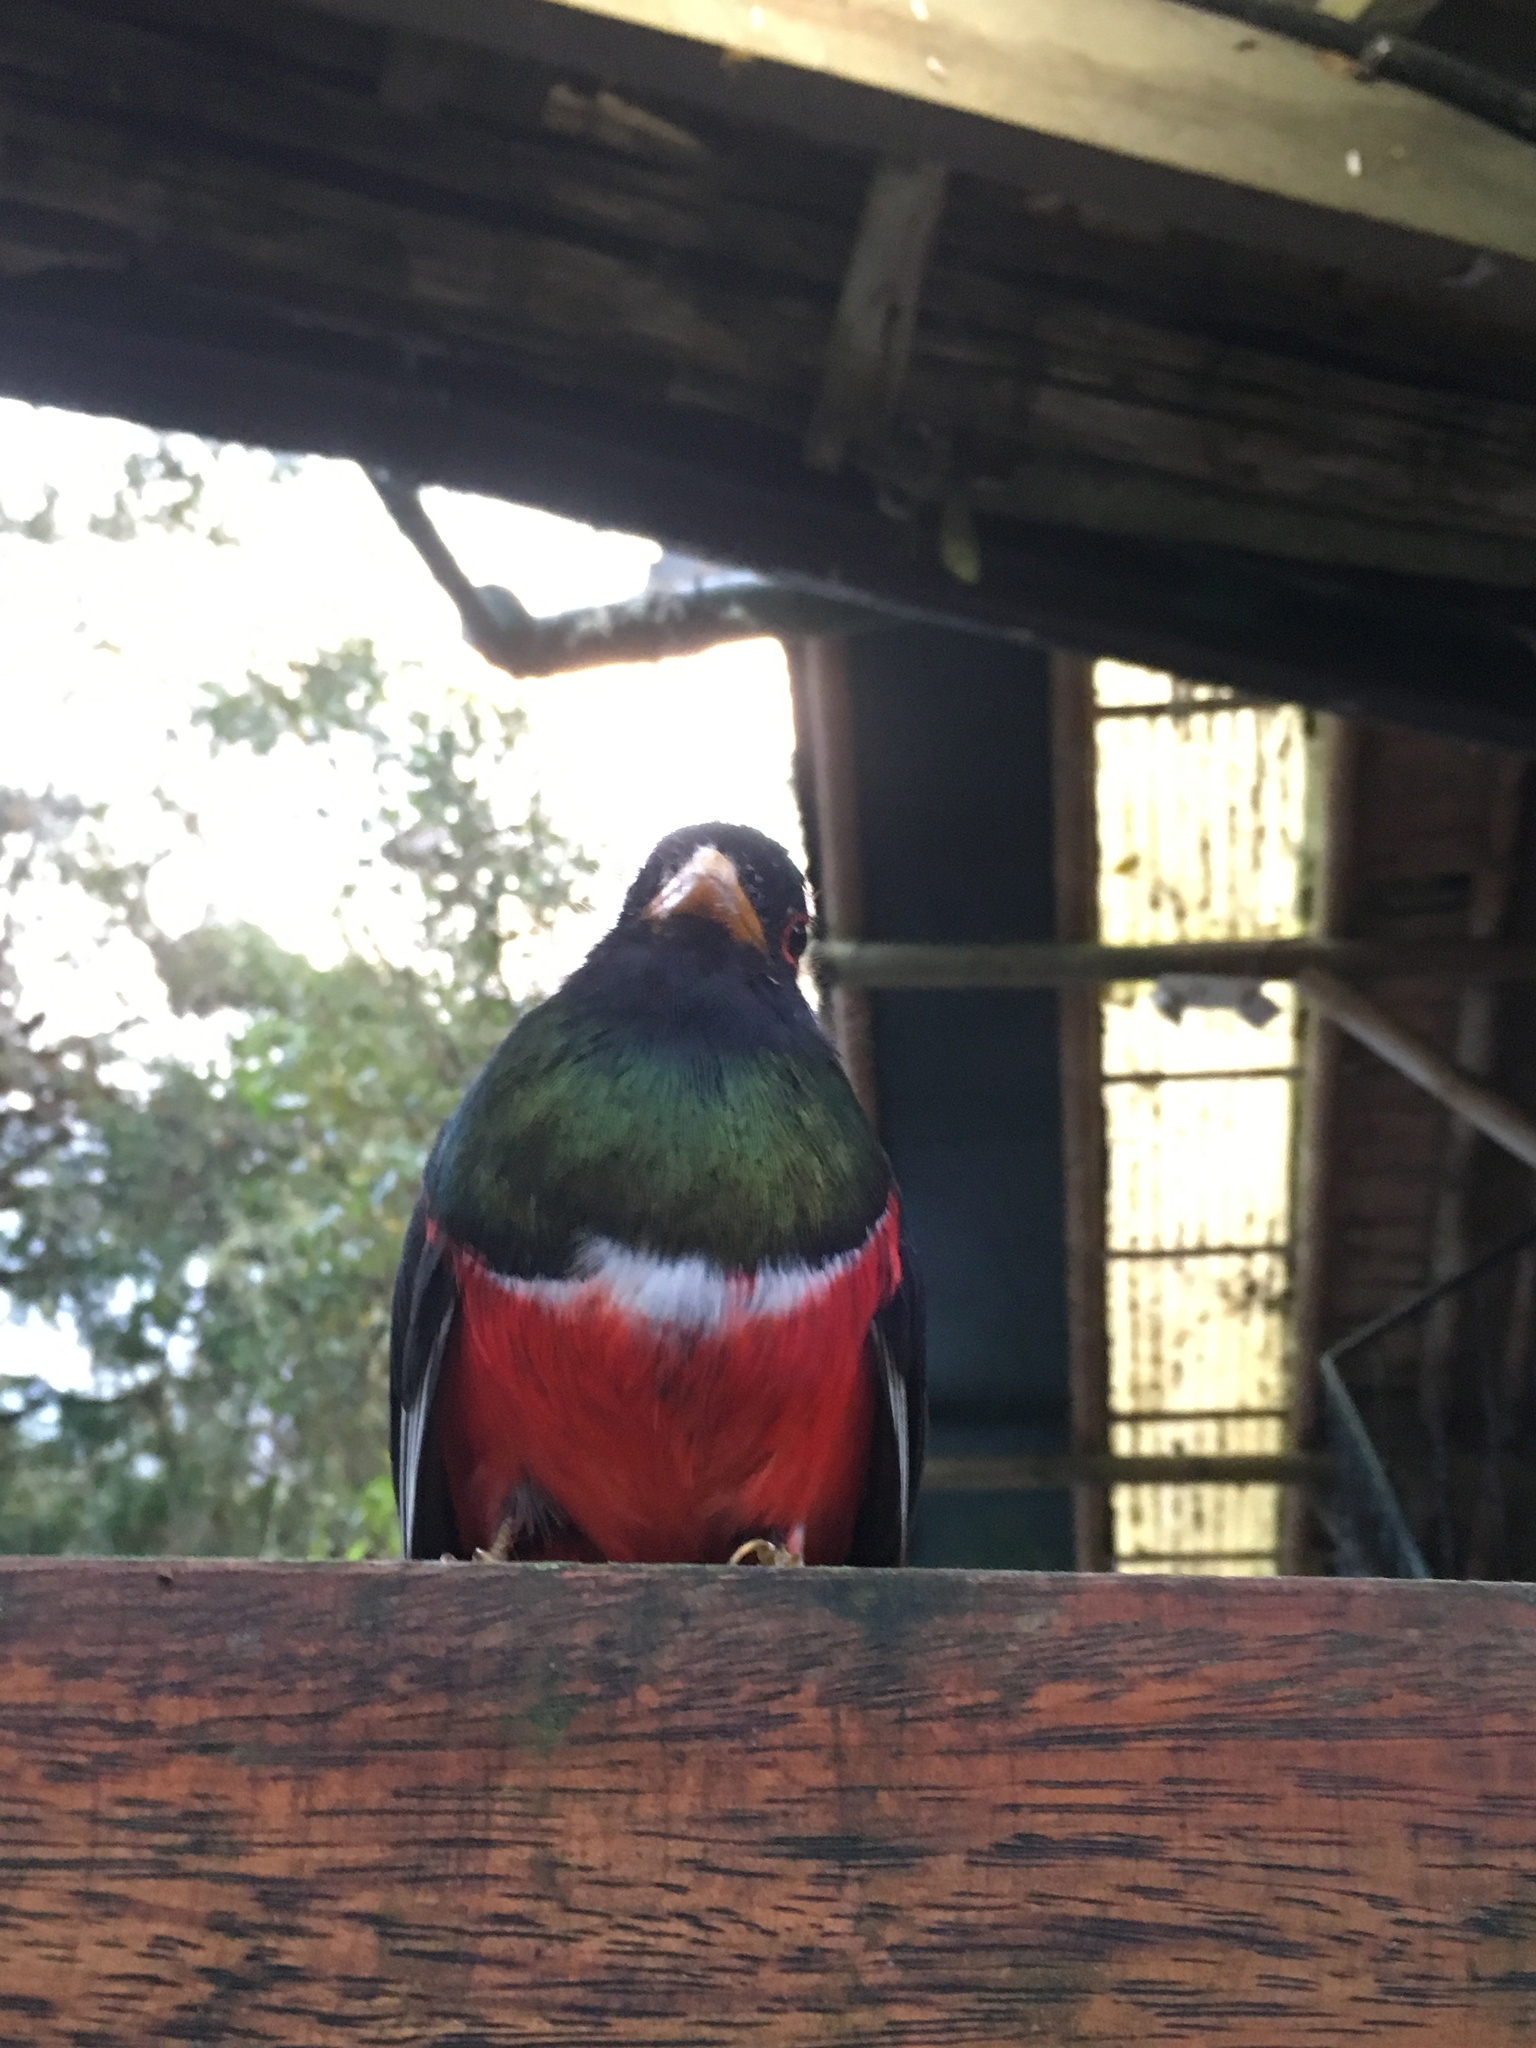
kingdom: Animalia
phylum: Chordata
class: Aves
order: Trogoniformes
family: Trogonidae
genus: Trogon
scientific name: Trogon personatus
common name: Masked trogon
